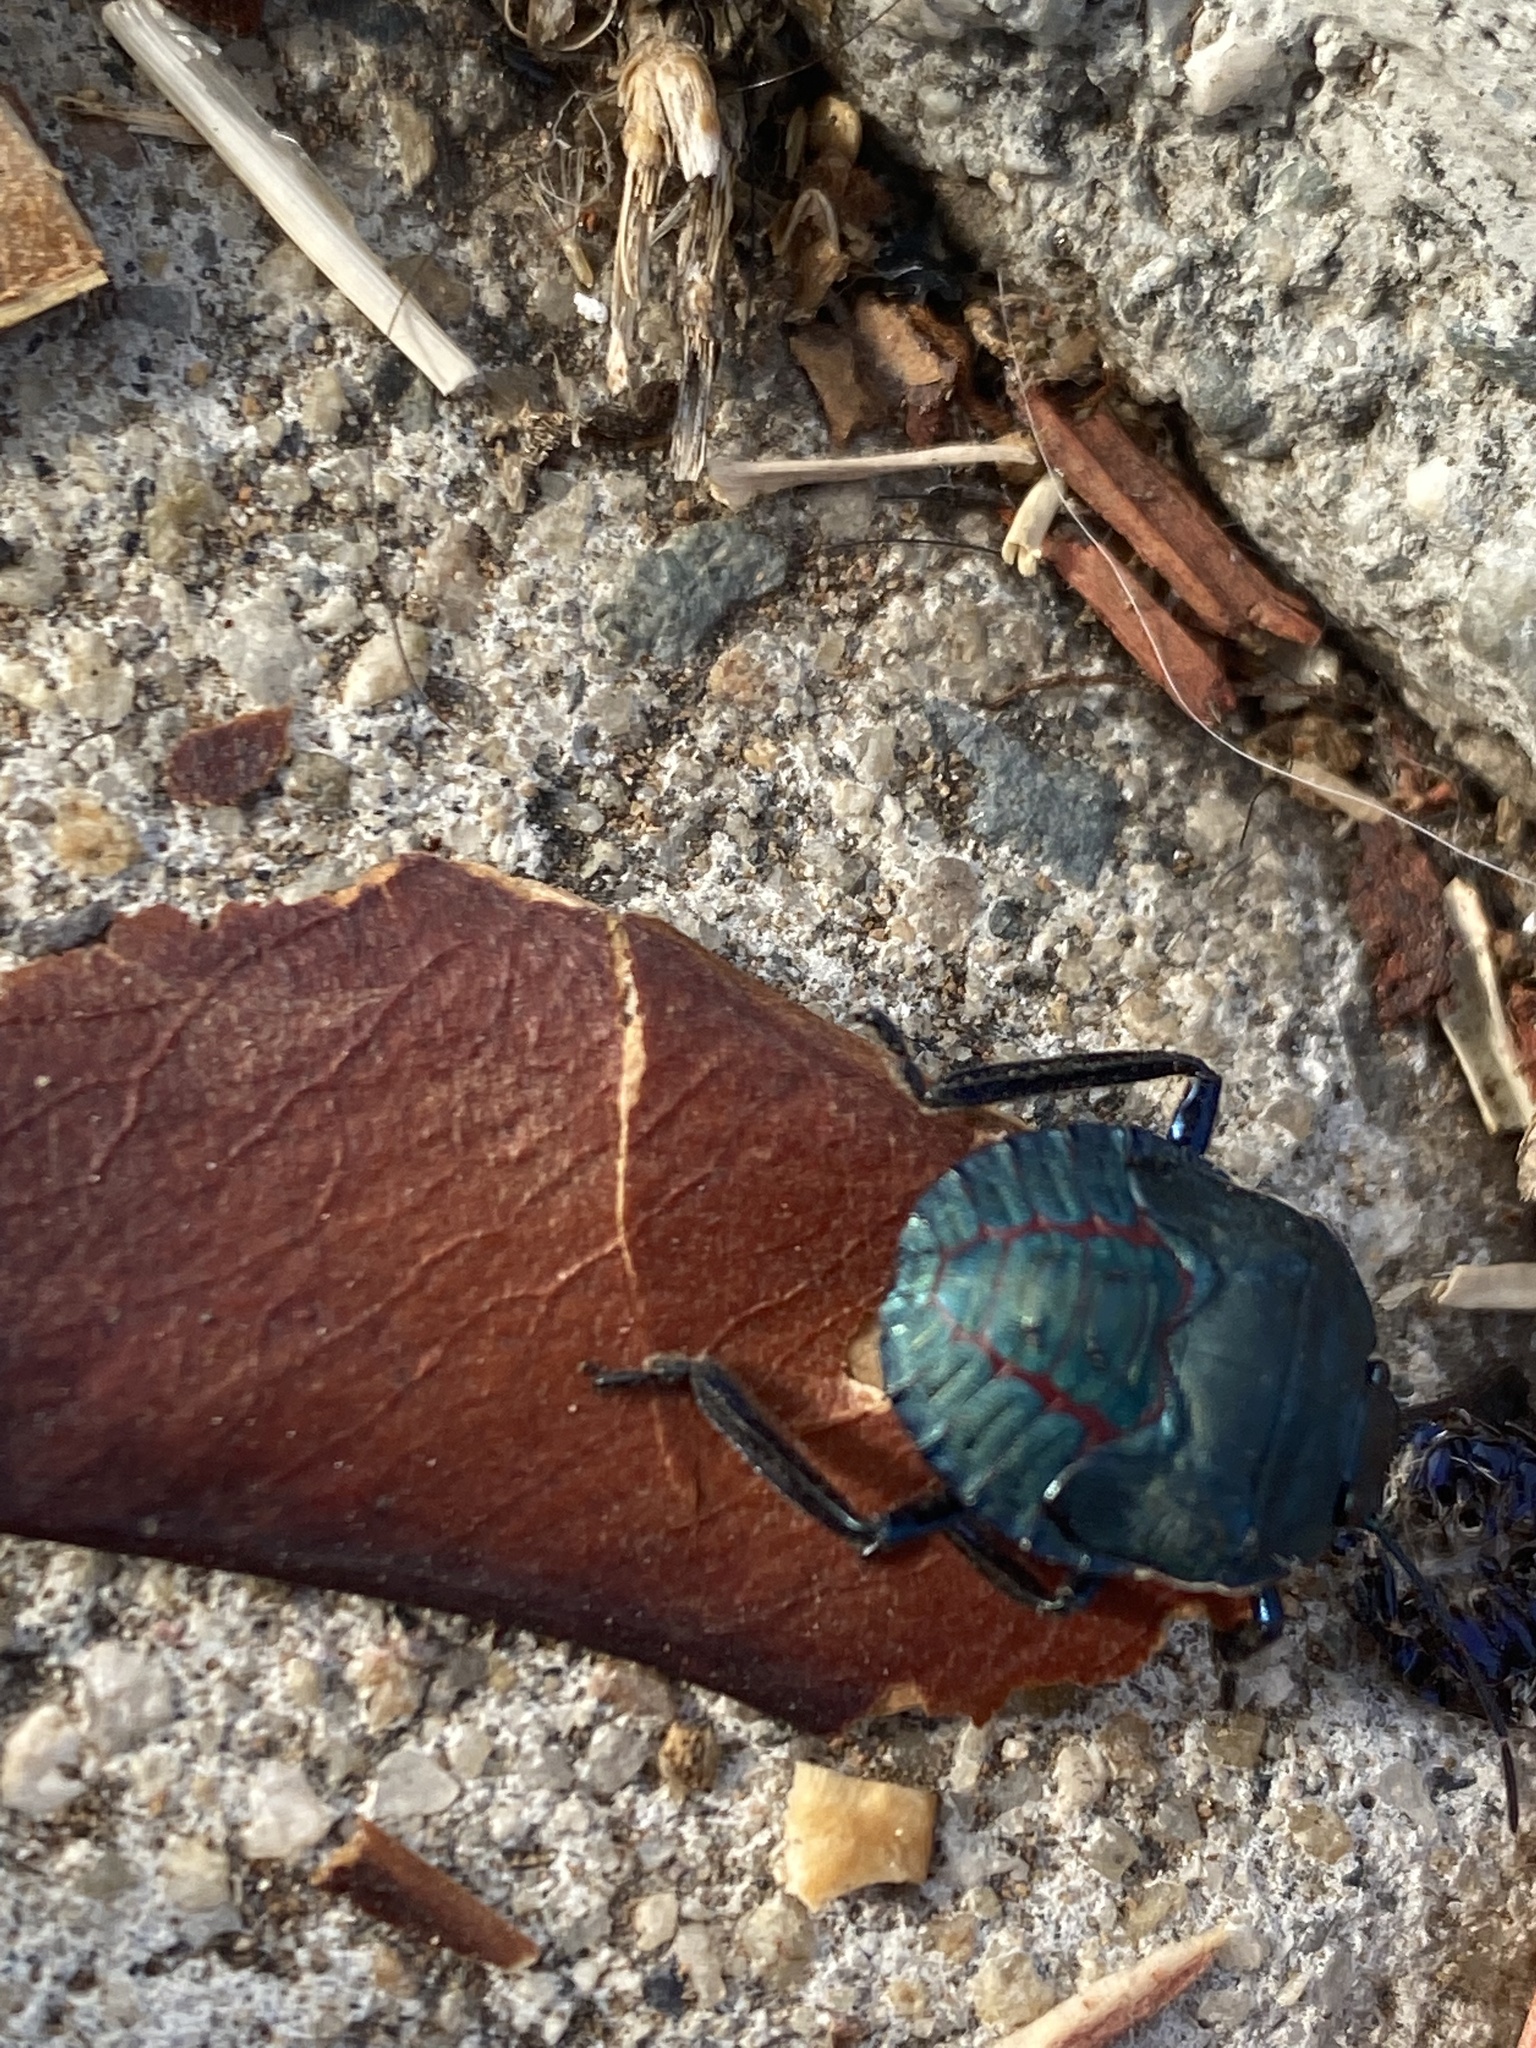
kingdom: Animalia
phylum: Arthropoda
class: Insecta
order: Hemiptera
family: Pentatomidae
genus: Pellaea
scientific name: Pellaea stictica
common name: Stink bug
